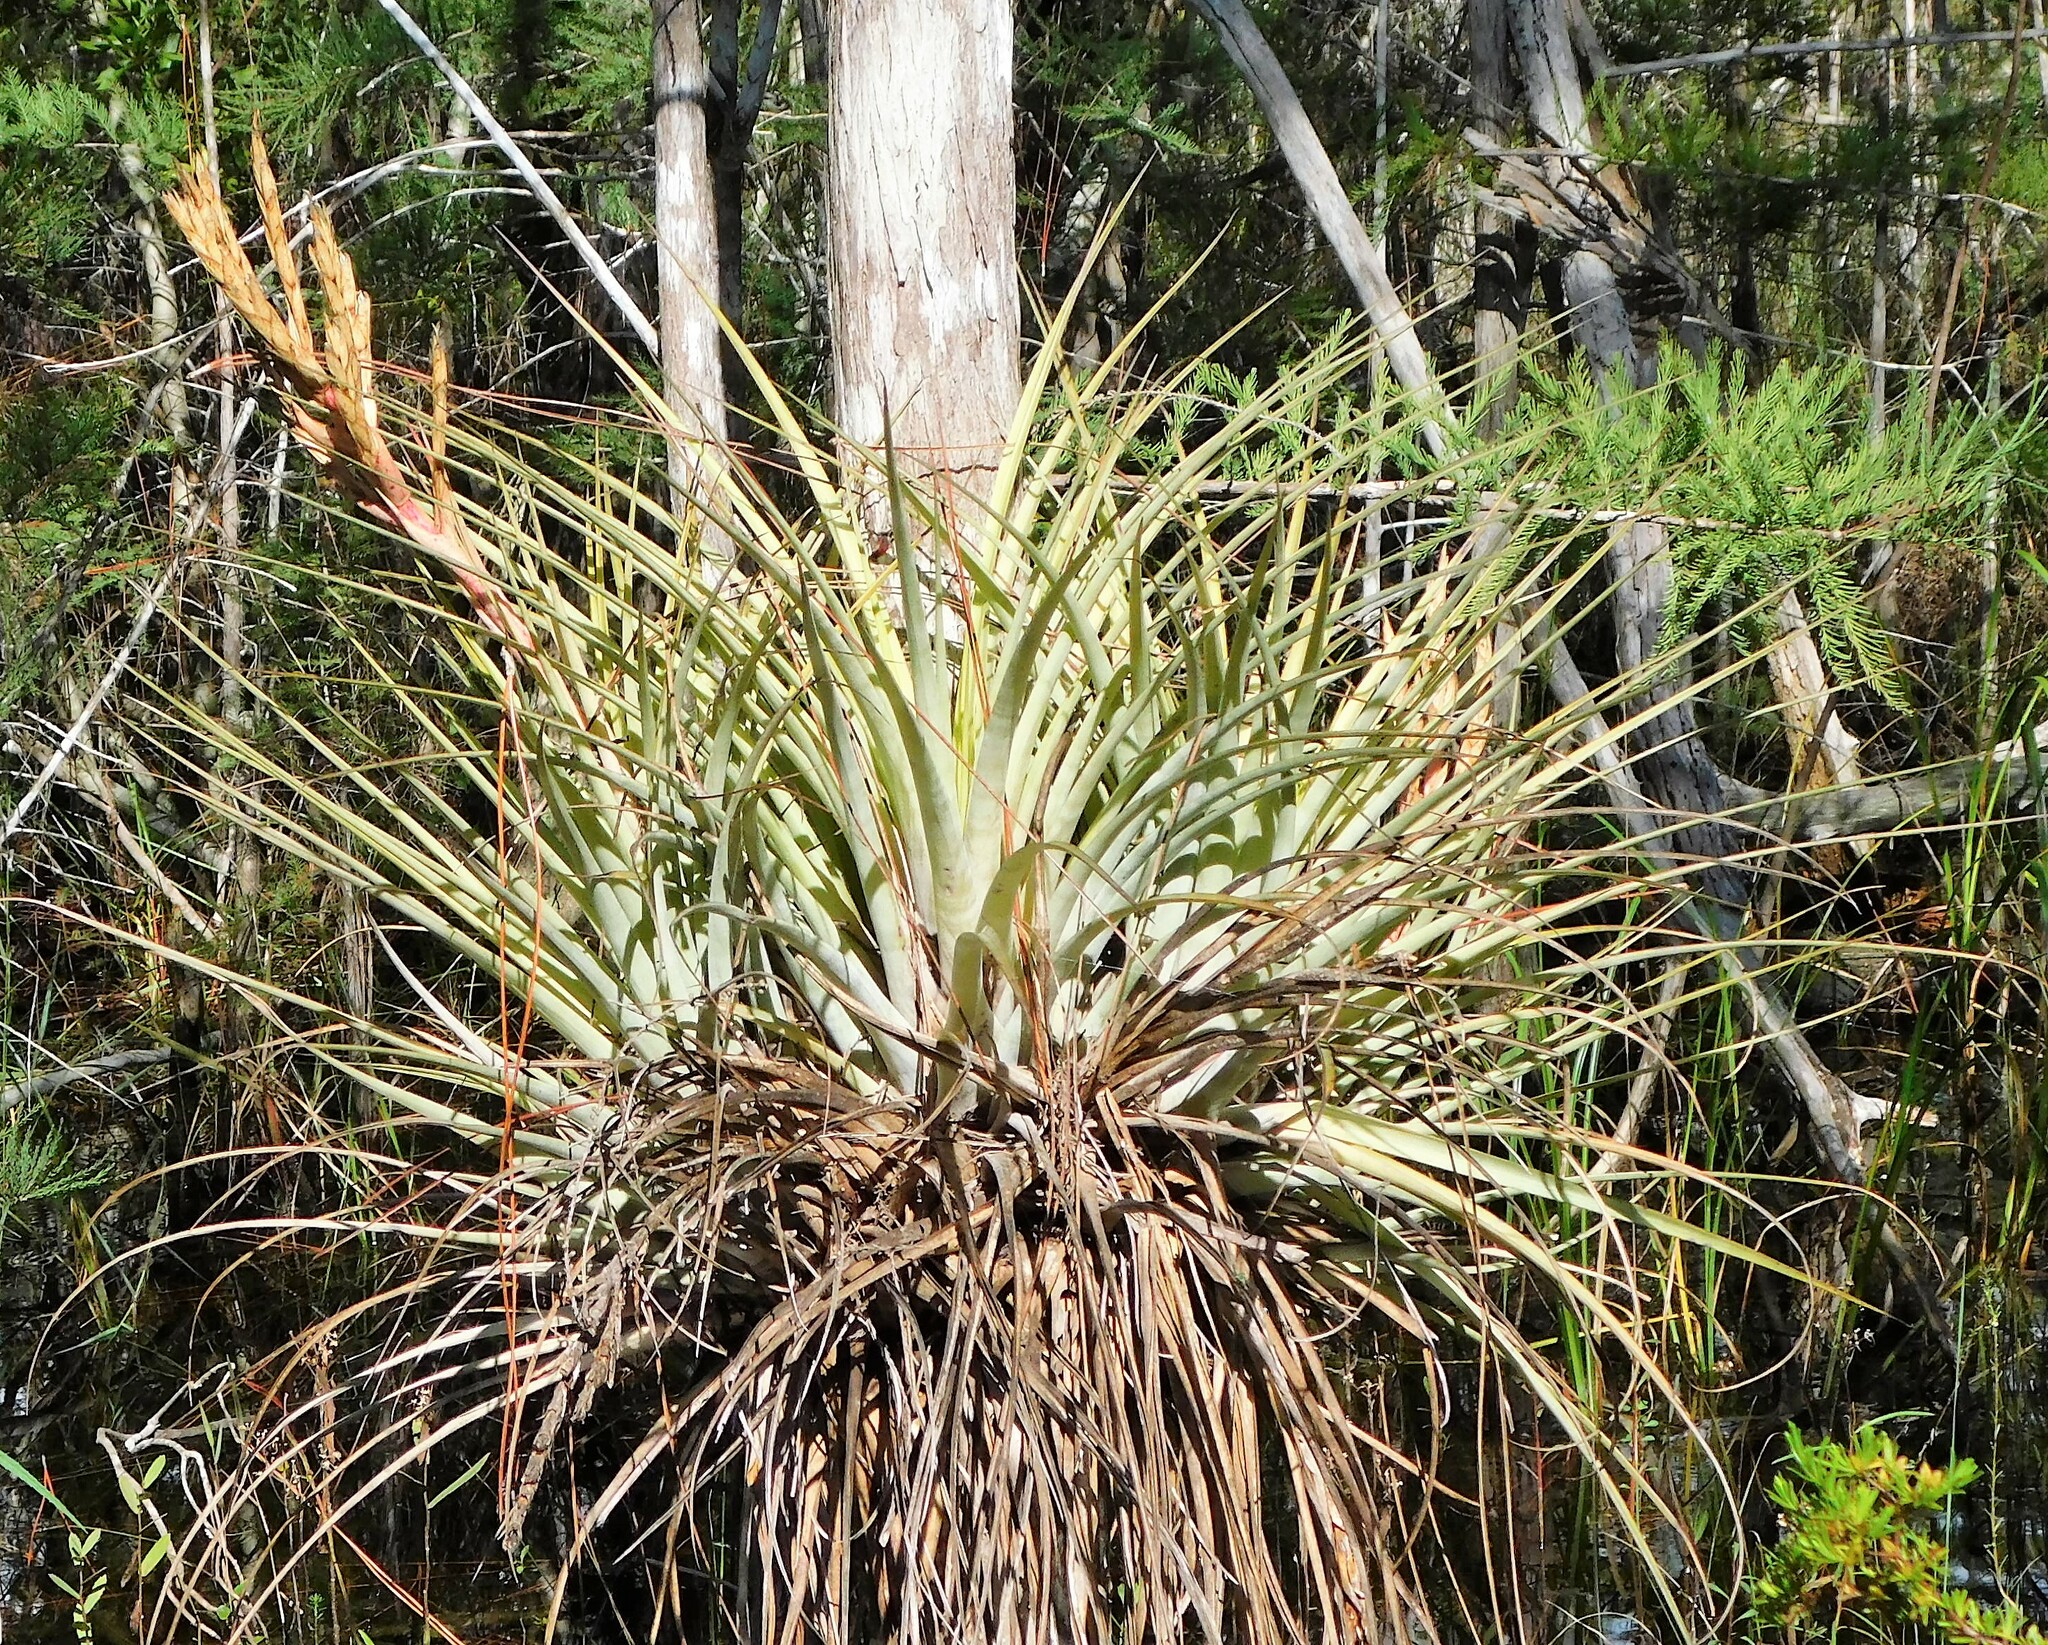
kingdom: Plantae
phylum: Tracheophyta
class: Liliopsida
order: Poales
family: Bromeliaceae
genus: Tillandsia
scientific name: Tillandsia fasciculata
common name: Giant airplant
